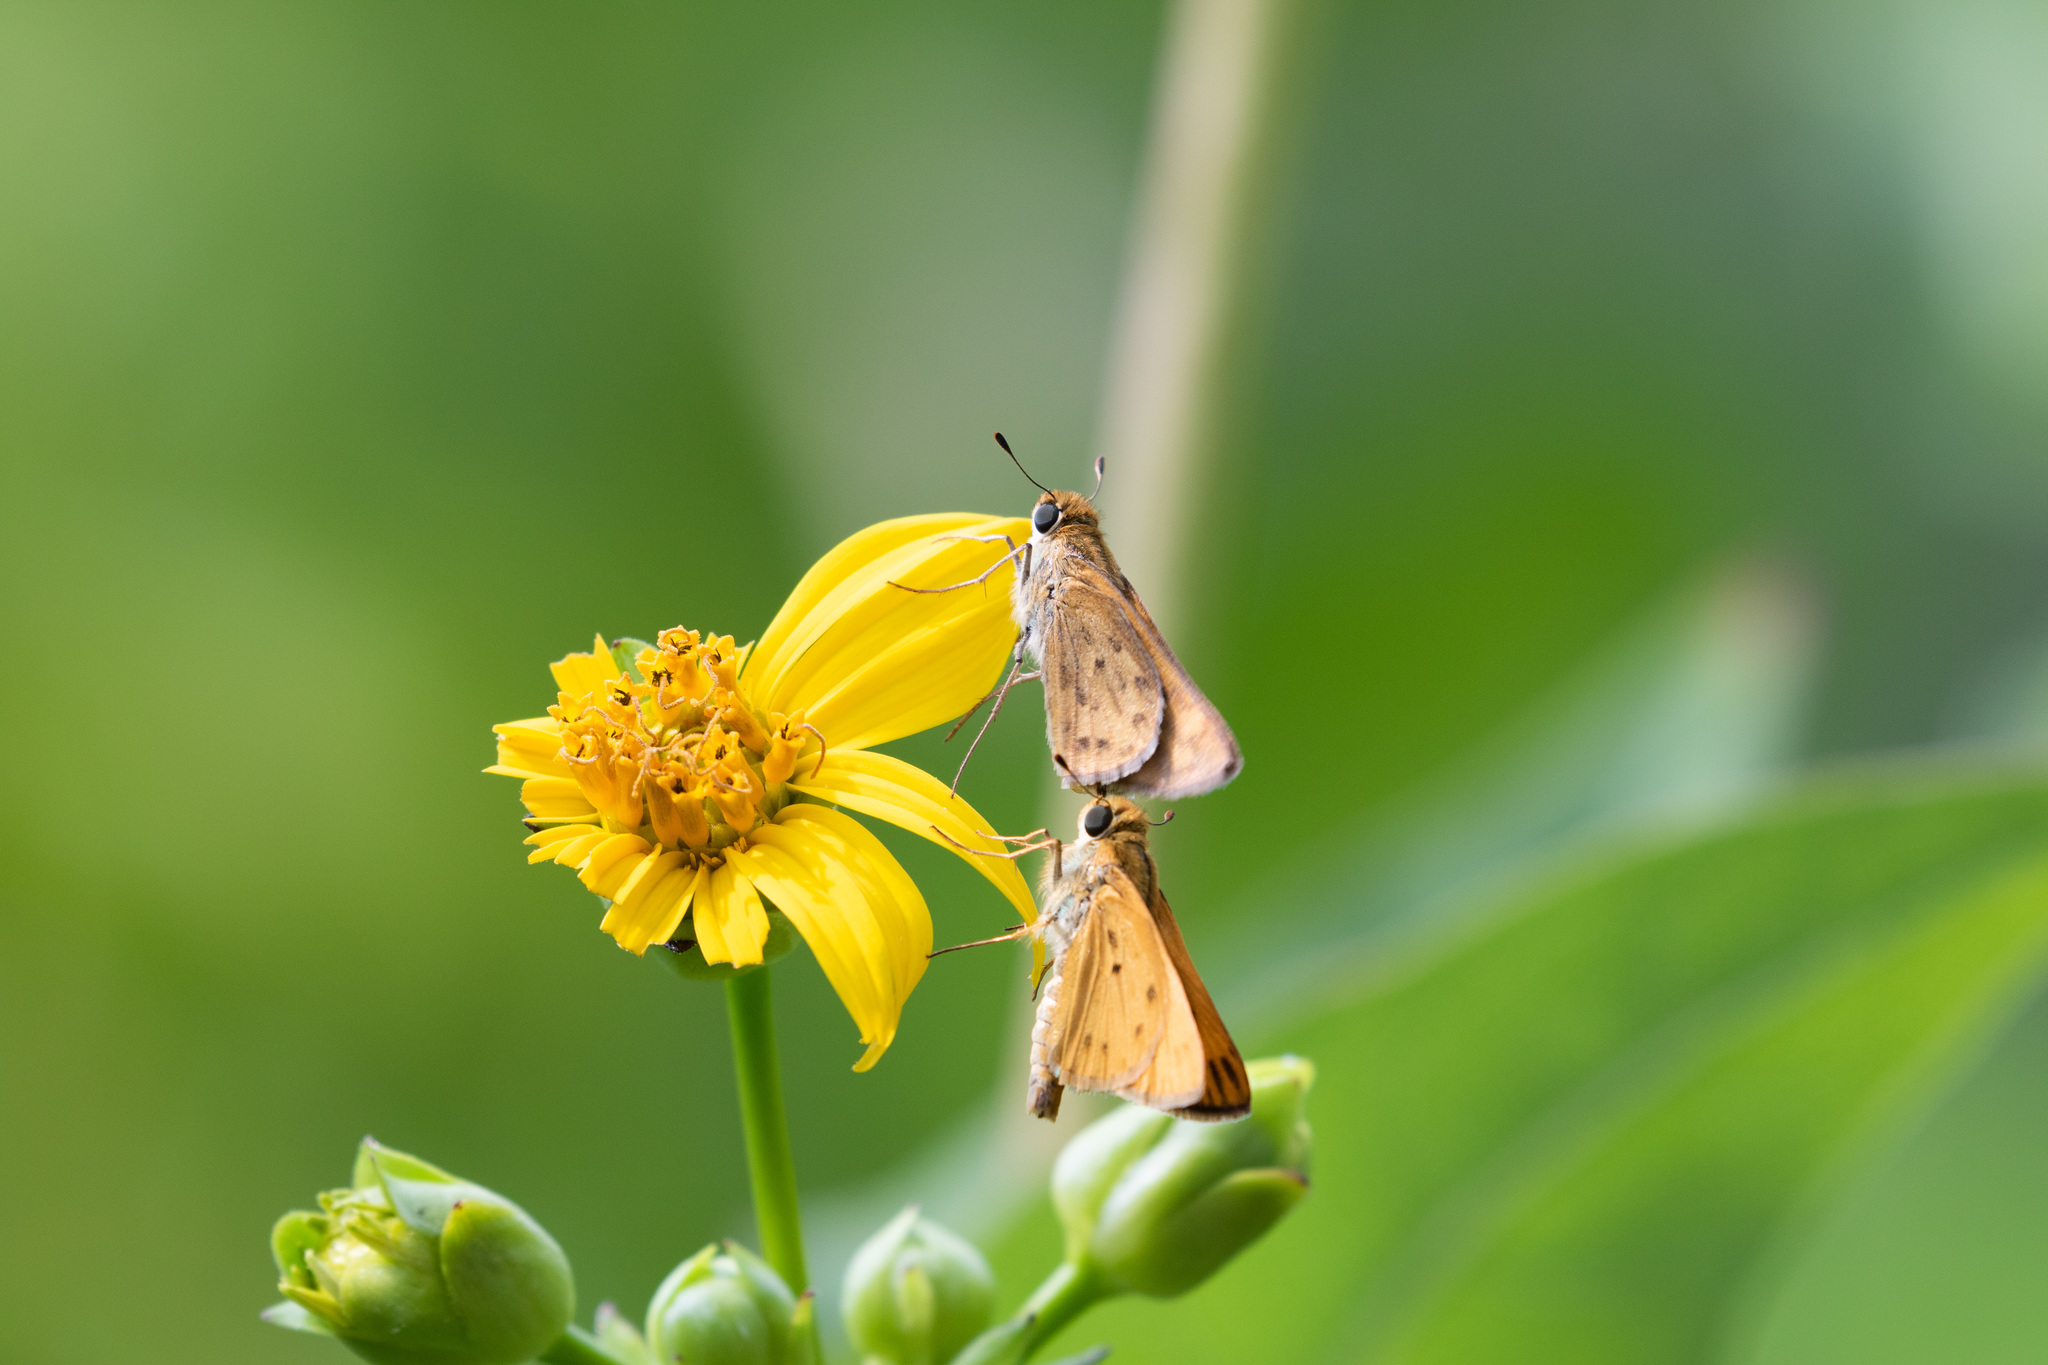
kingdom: Animalia
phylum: Arthropoda
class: Insecta
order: Lepidoptera
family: Hesperiidae
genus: Hylephila
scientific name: Hylephila phyleus
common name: Fiery skipper
